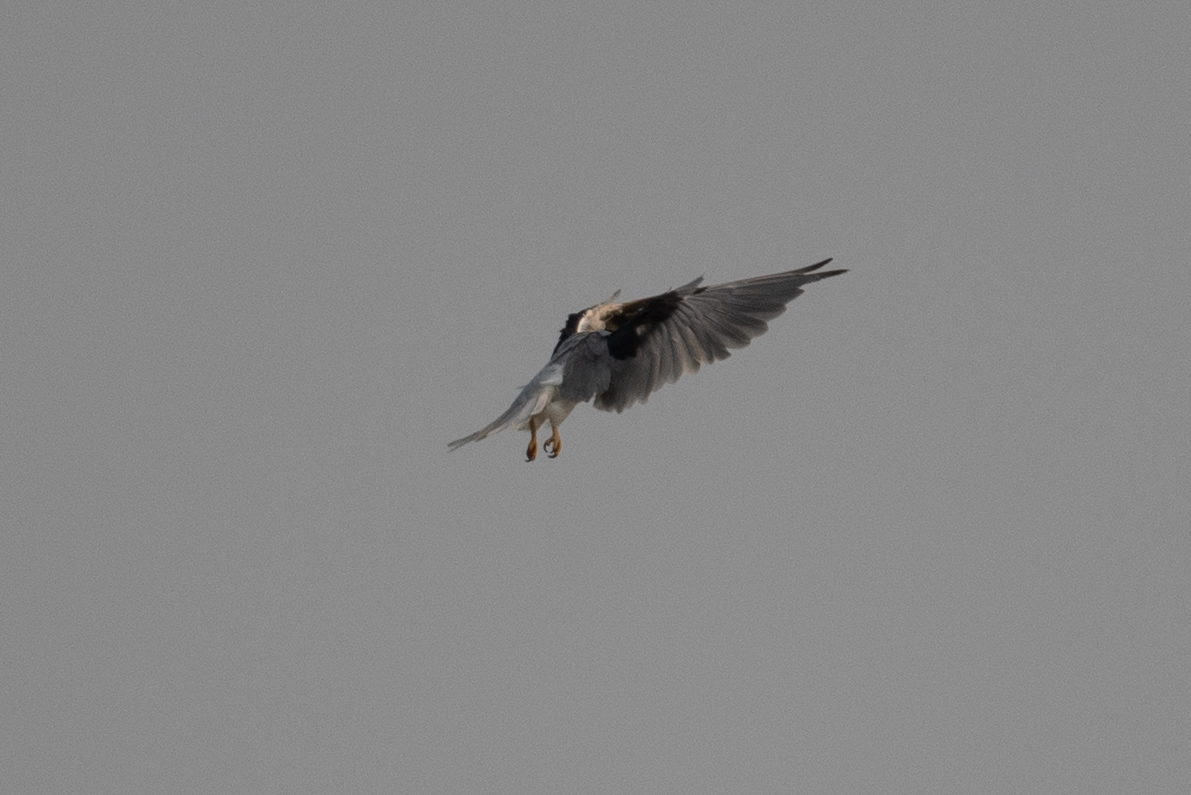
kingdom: Animalia
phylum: Chordata
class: Aves
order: Accipitriformes
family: Accipitridae
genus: Elanus
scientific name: Elanus leucurus
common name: White-tailed kite
